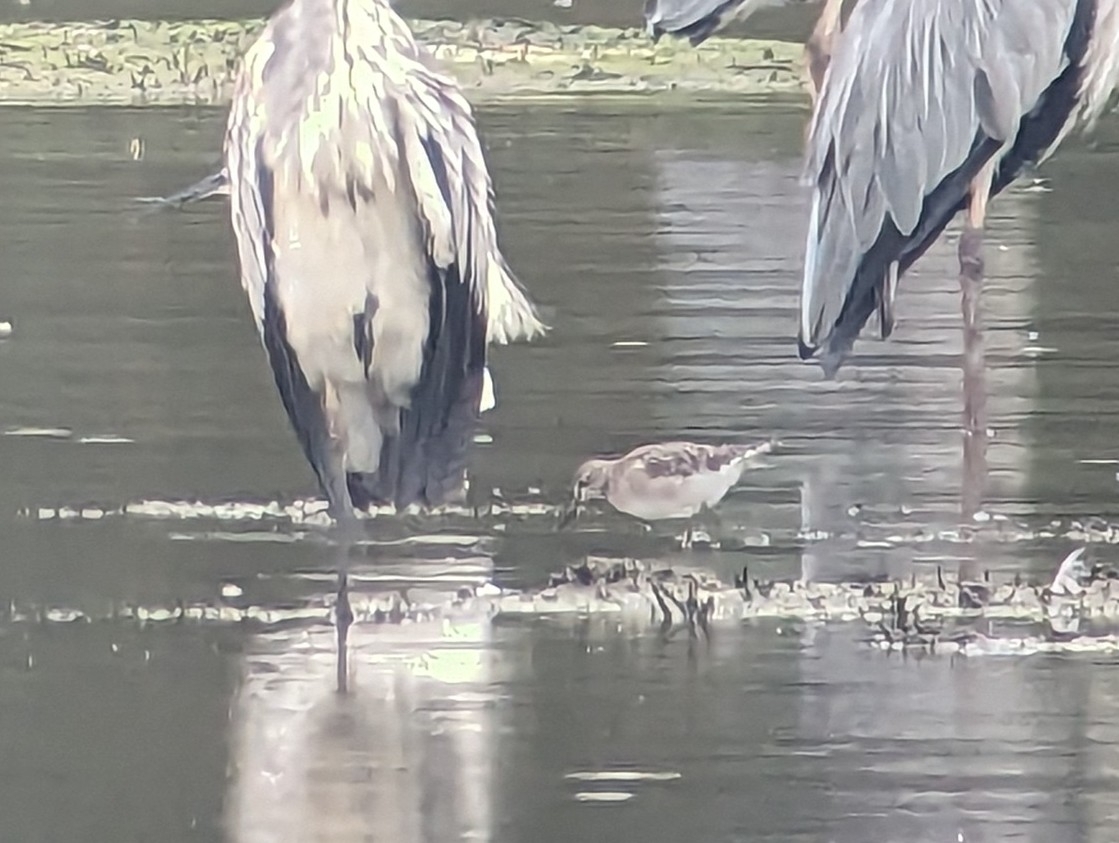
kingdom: Animalia
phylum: Chordata
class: Aves
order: Charadriiformes
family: Scolopacidae
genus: Tringa
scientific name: Tringa glareola
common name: Wood sandpiper
